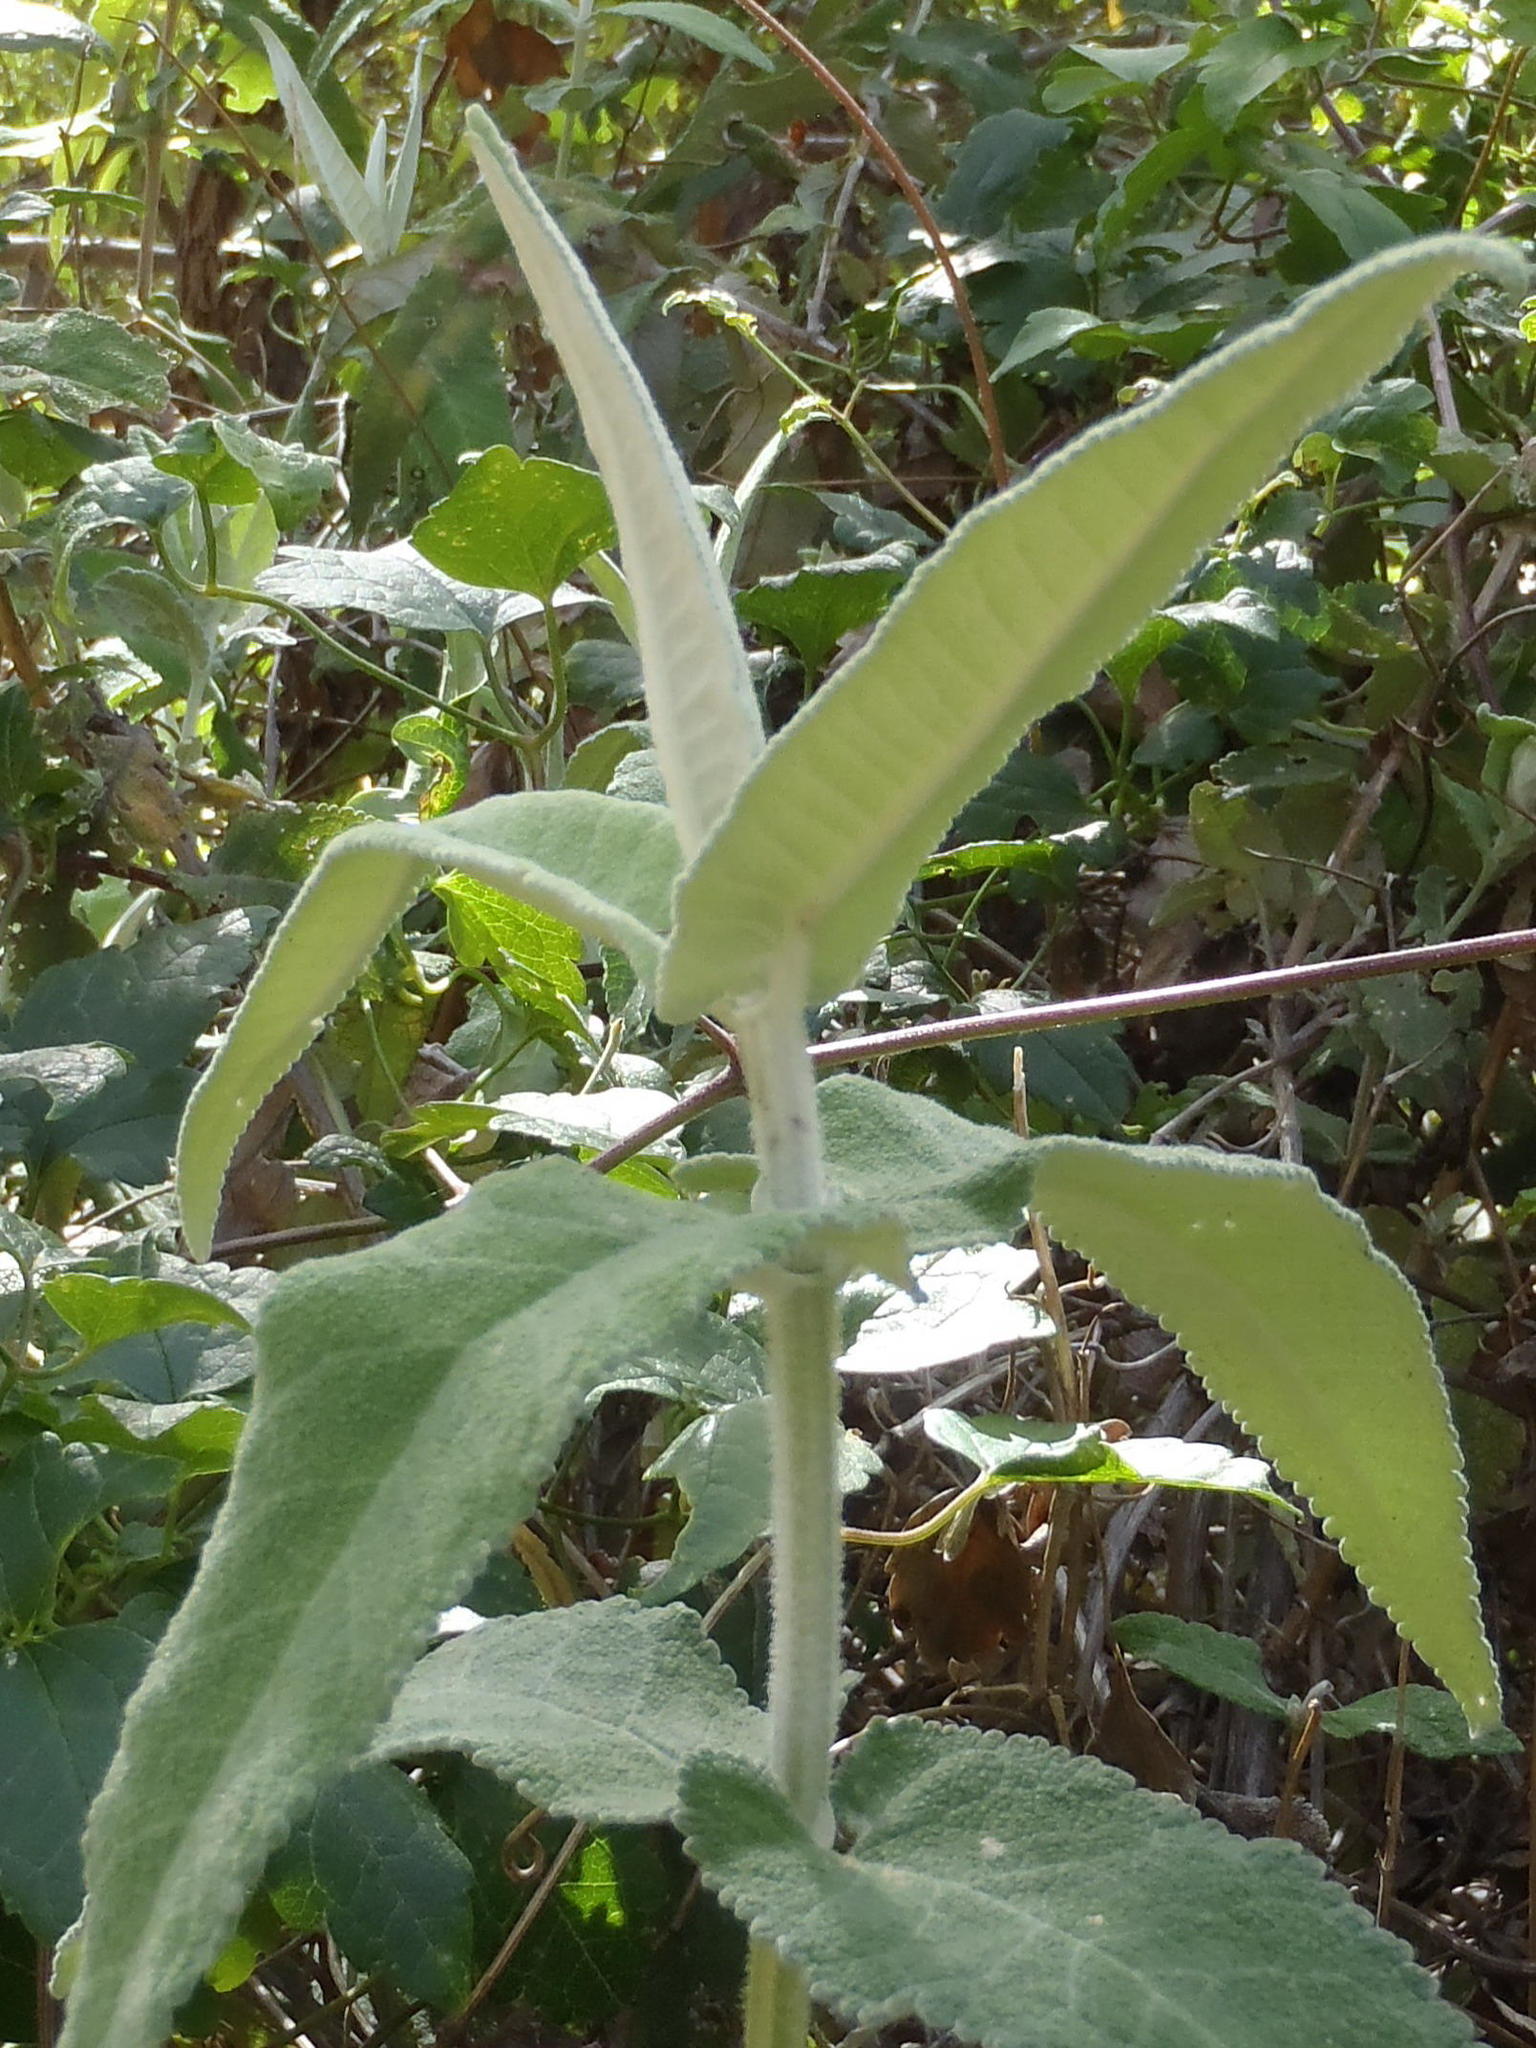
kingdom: Plantae
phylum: Tracheophyta
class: Magnoliopsida
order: Lamiales
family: Scrophulariaceae
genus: Buddleja
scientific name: Buddleja salviifolia
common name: Sagewood
